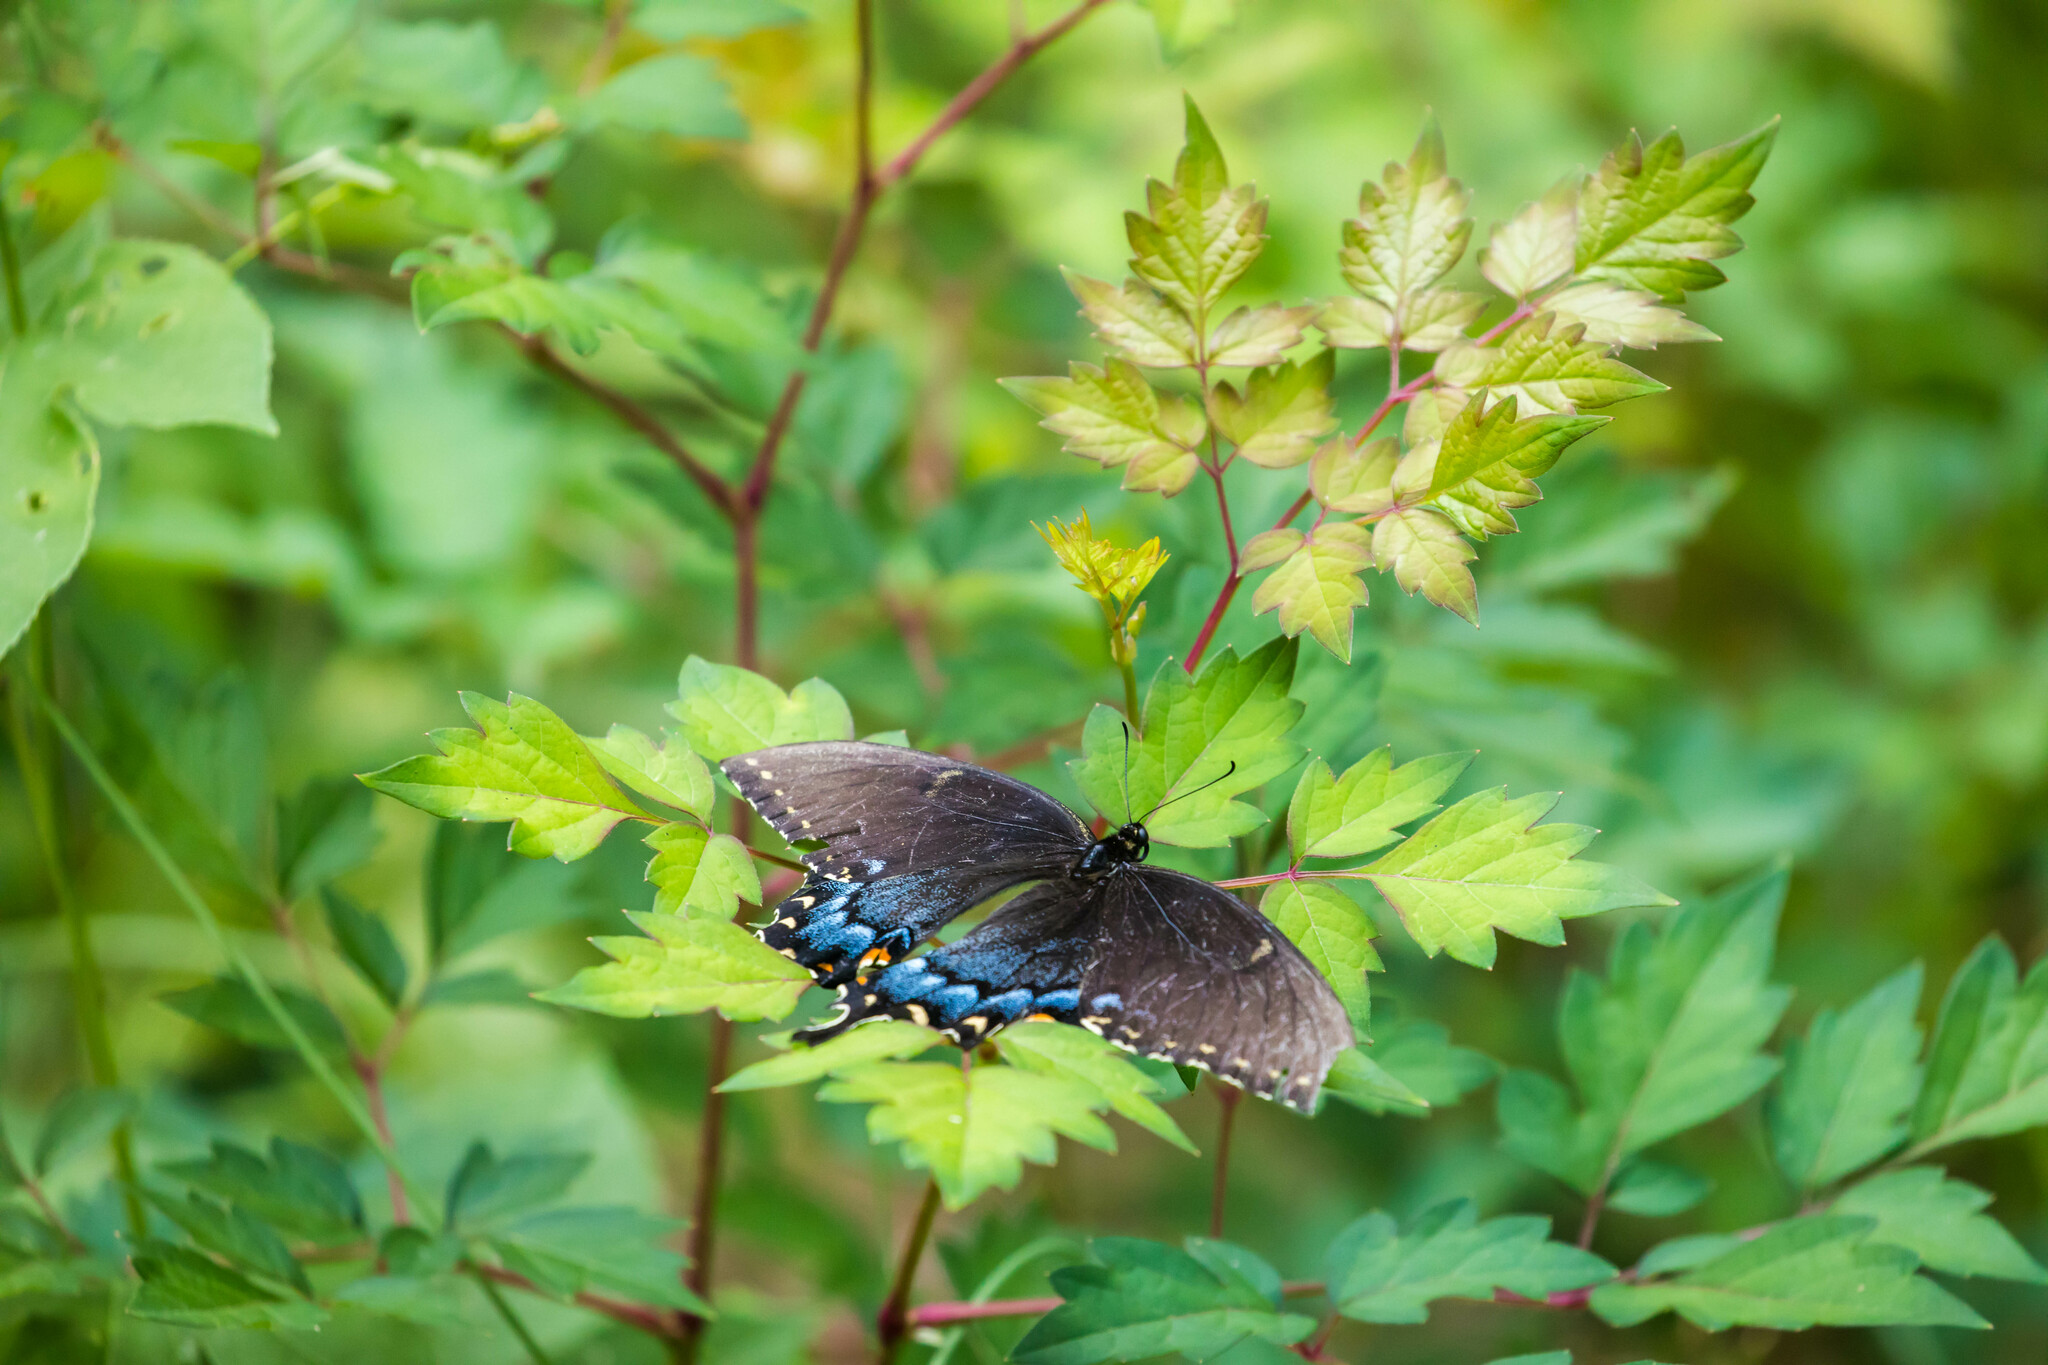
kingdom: Animalia
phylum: Arthropoda
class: Insecta
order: Lepidoptera
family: Papilionidae
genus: Papilio
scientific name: Papilio glaucus
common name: Tiger swallowtail
